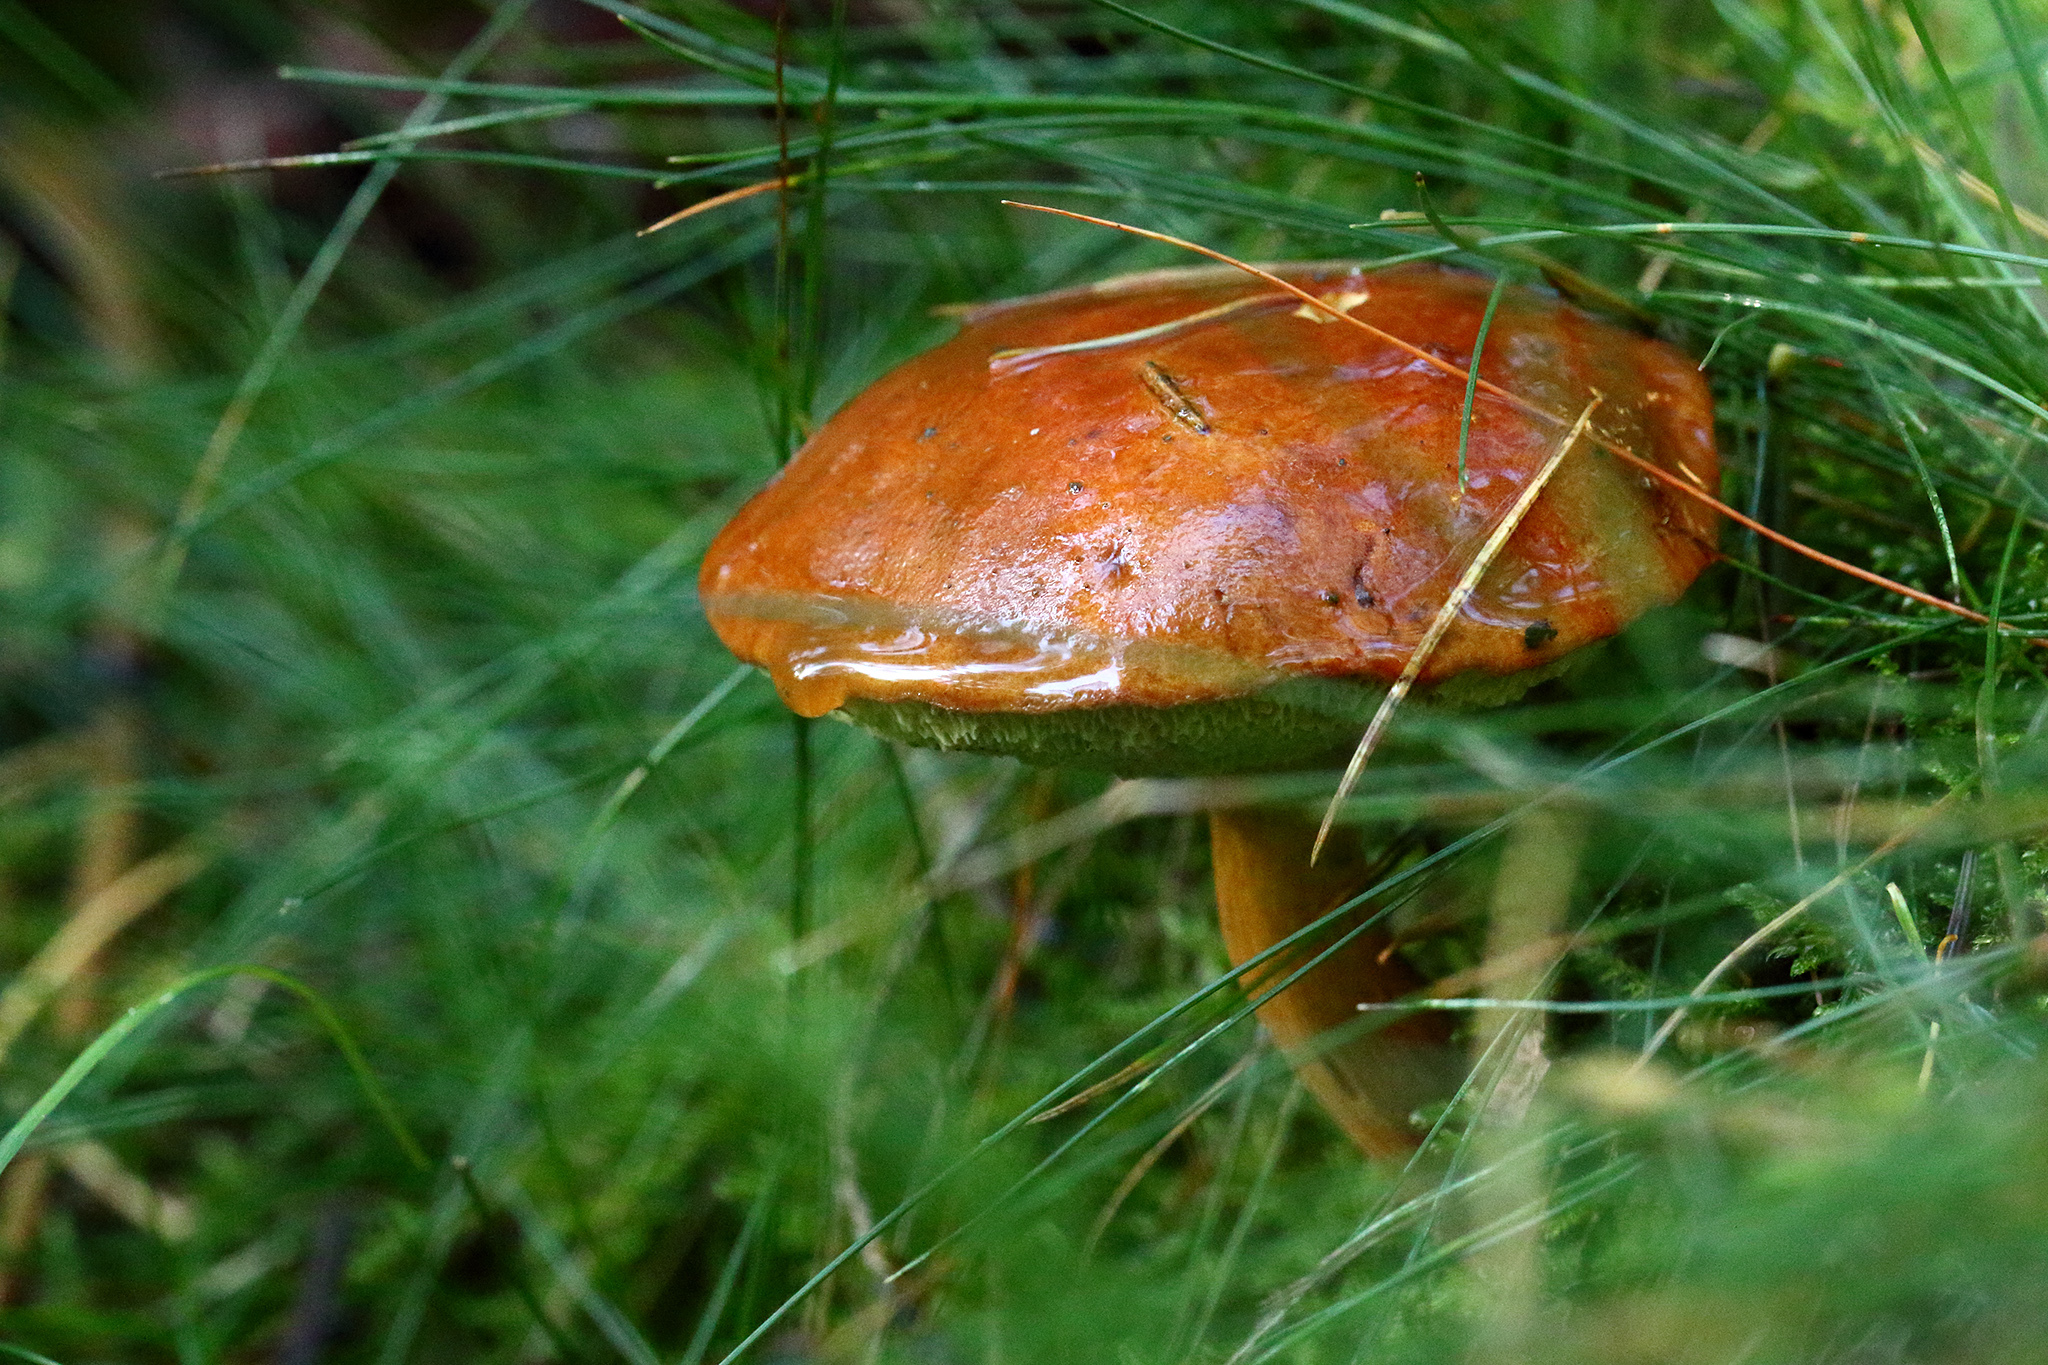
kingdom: Fungi
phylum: Basidiomycota
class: Agaricomycetes
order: Boletales
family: Boletaceae
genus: Imleria
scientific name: Imleria badia
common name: Bay bolete
